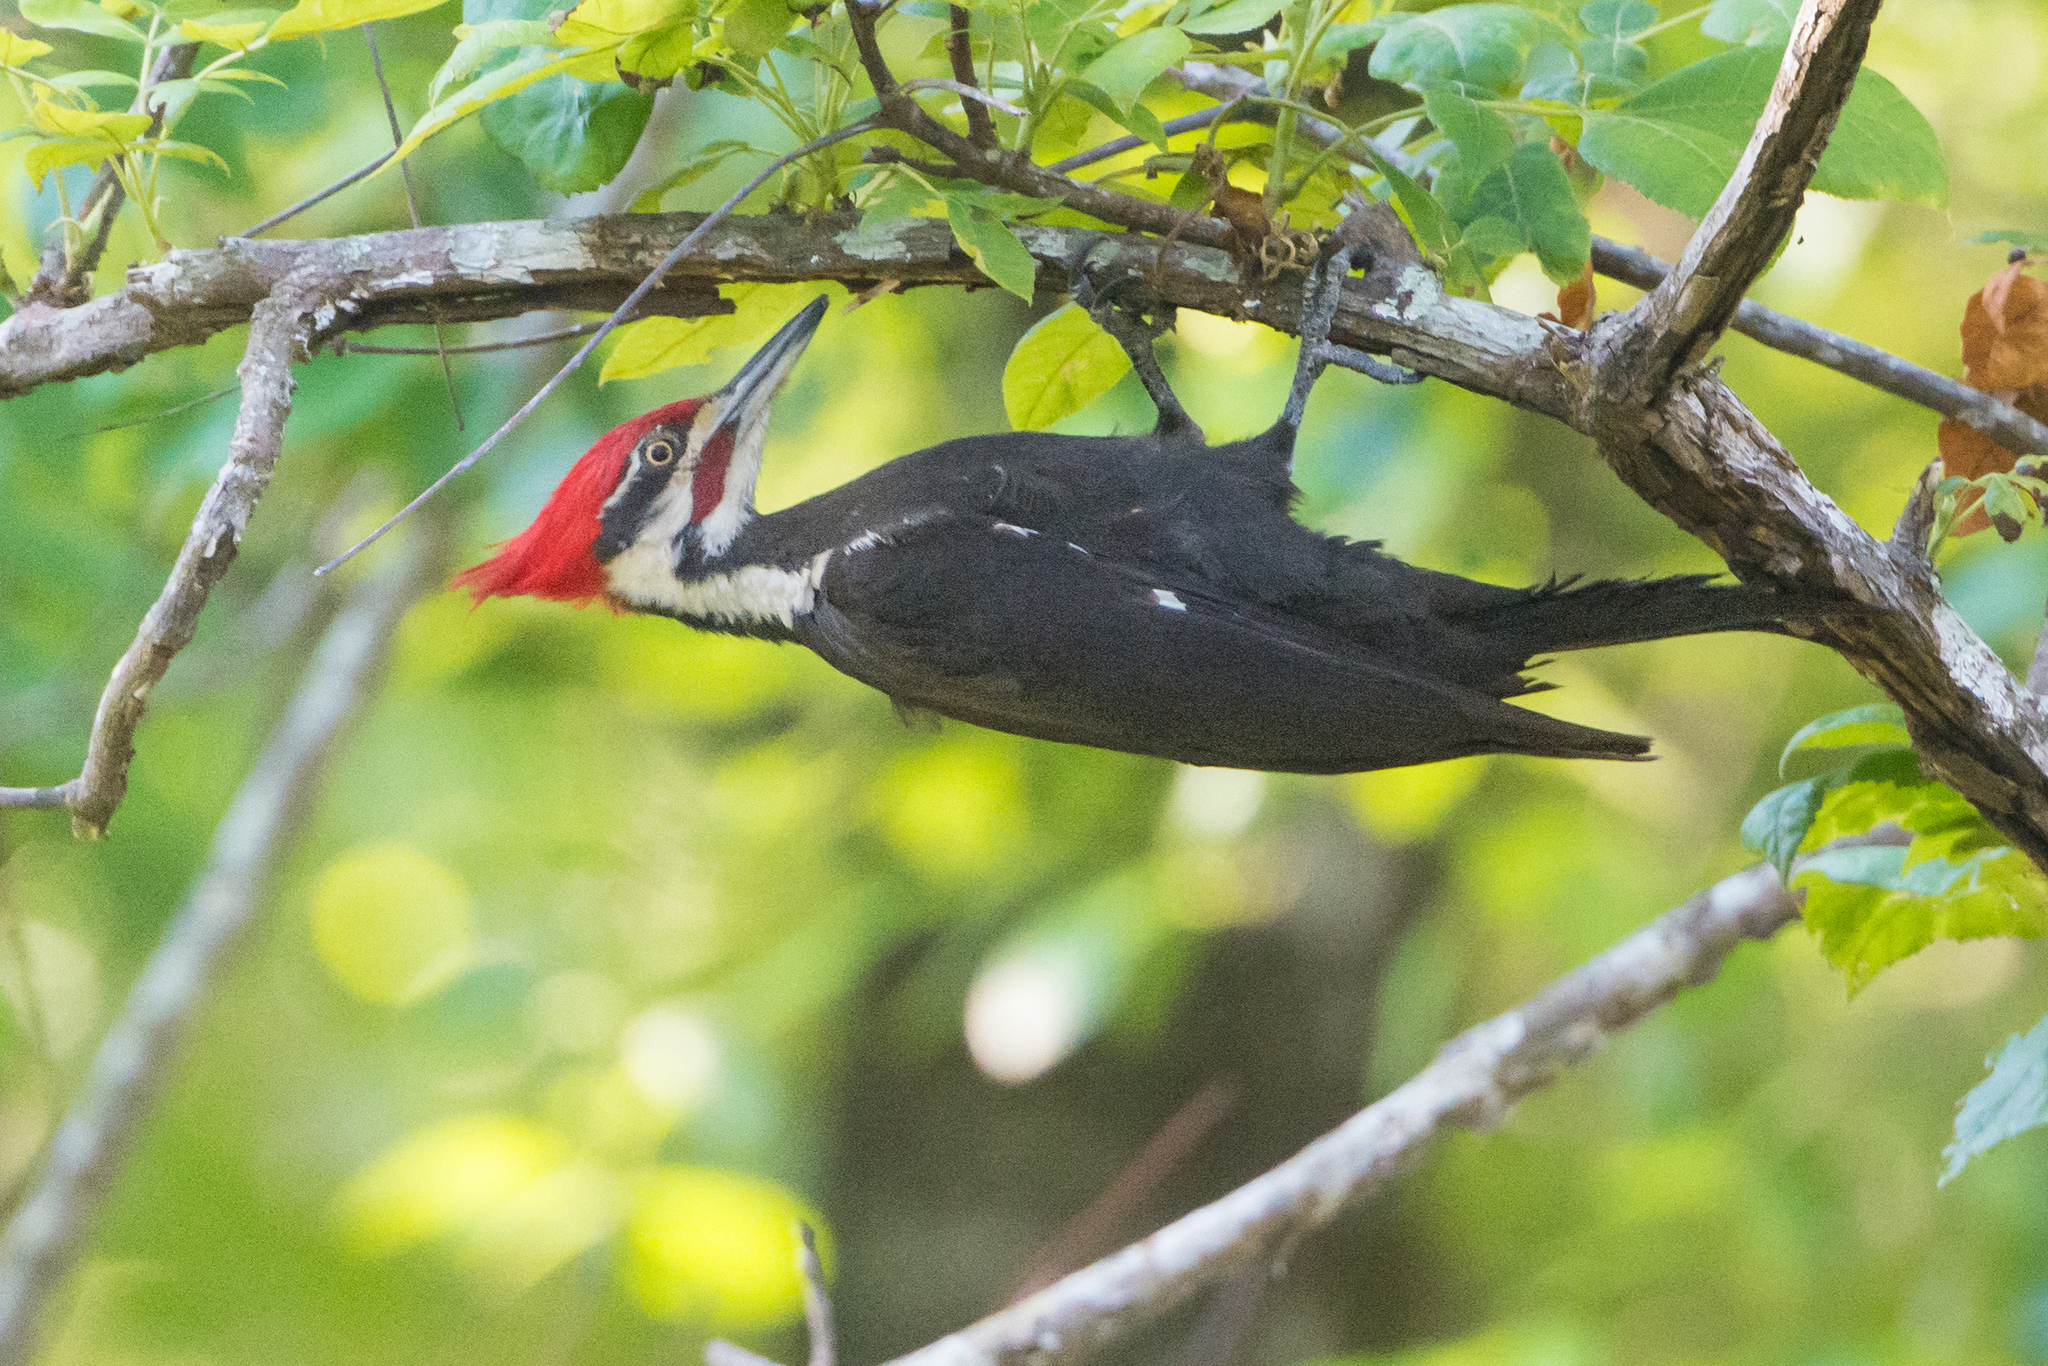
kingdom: Animalia
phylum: Chordata
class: Aves
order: Piciformes
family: Picidae
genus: Dryocopus
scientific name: Dryocopus pileatus
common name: Pileated woodpecker
